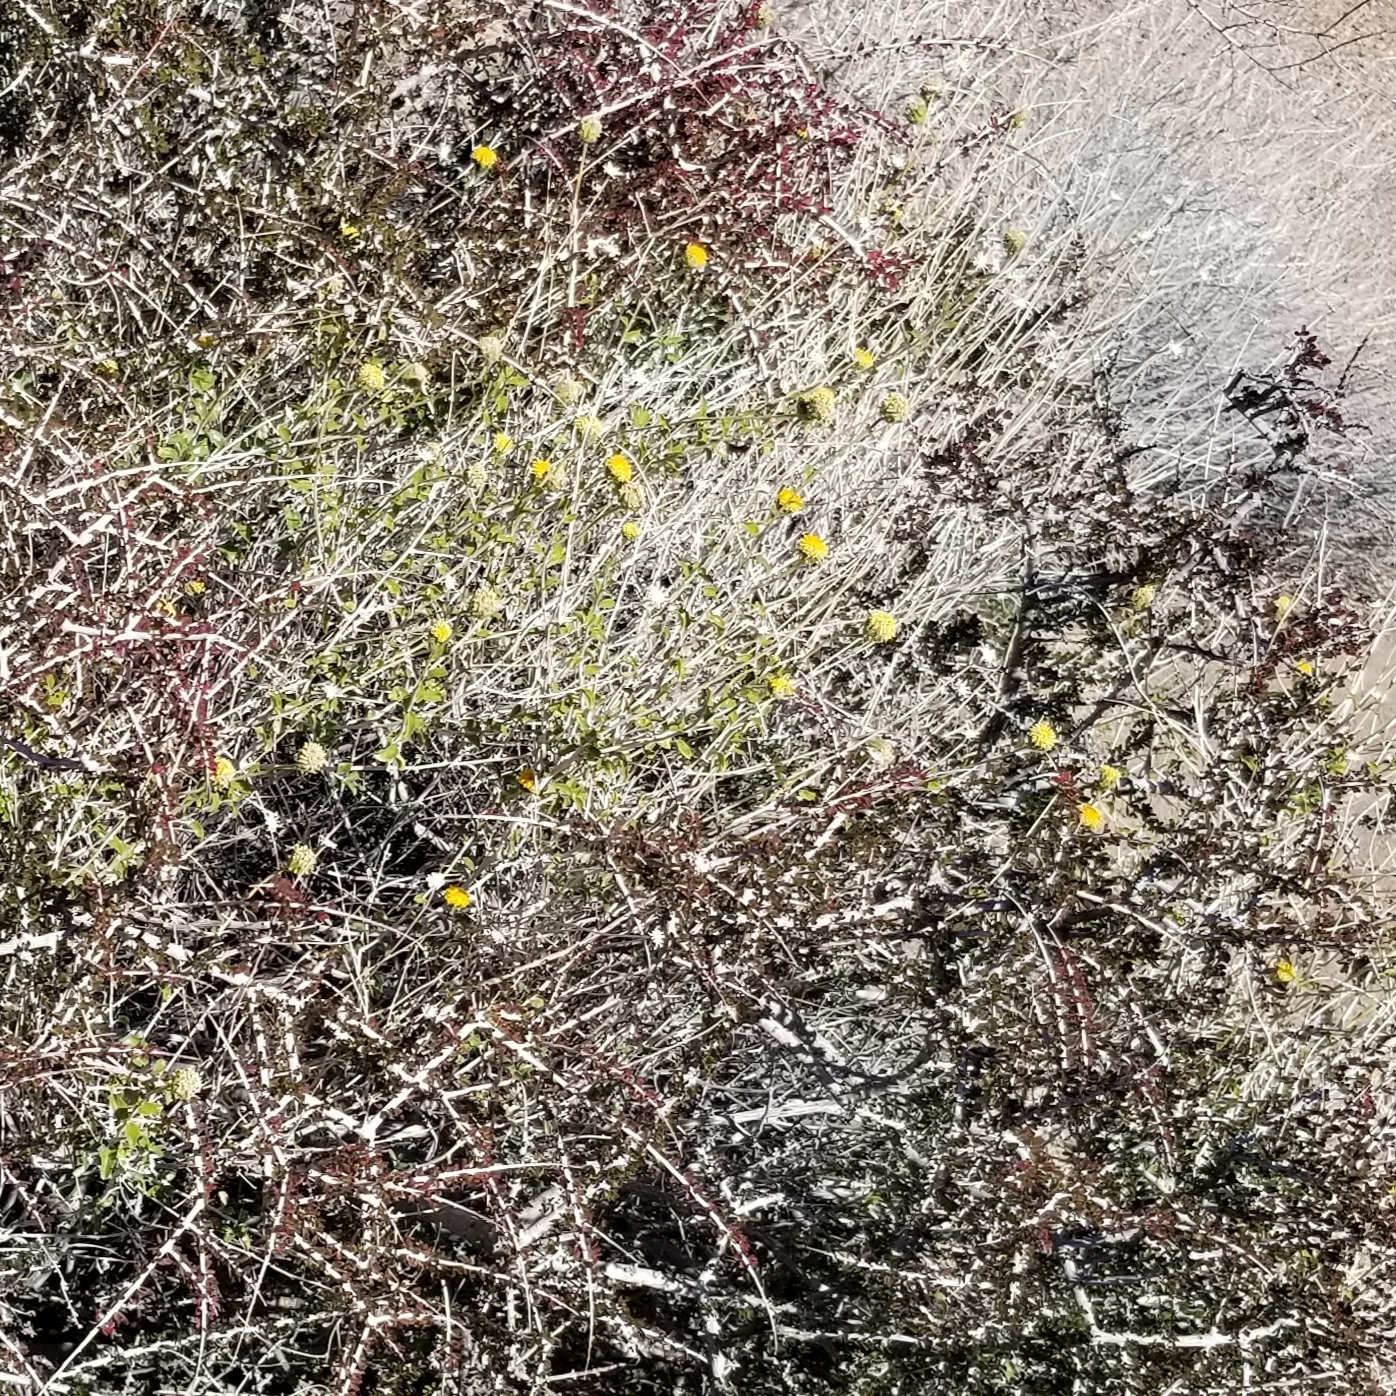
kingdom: Plantae
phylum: Tracheophyta
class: Magnoliopsida
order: Asterales
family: Asteraceae
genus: Encelia
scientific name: Encelia frutescens
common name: Bush encelia
